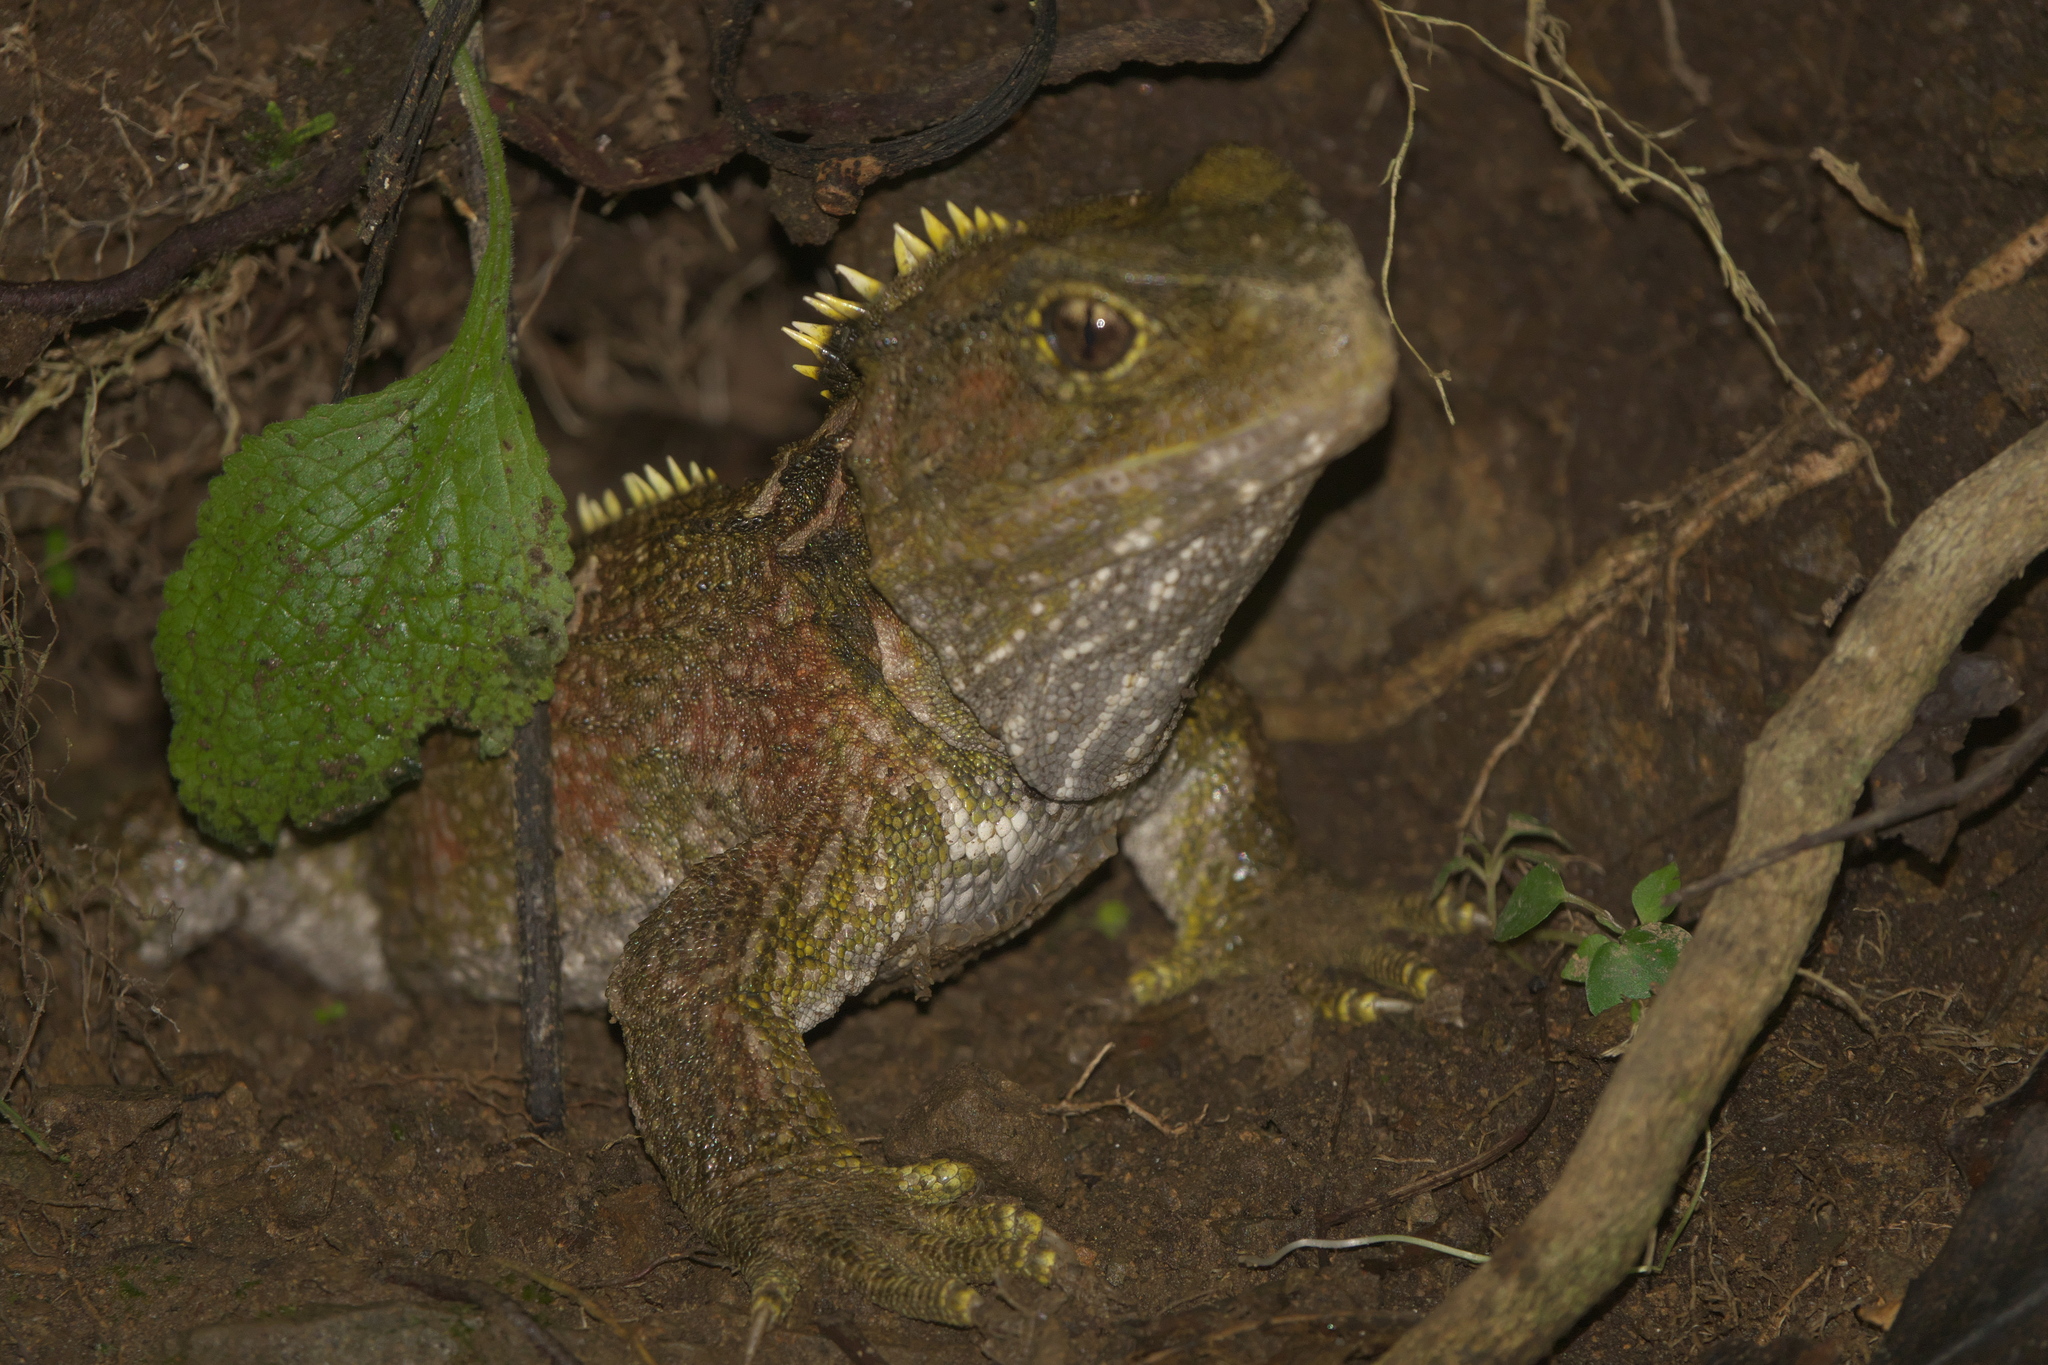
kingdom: Animalia
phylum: Chordata
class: Sphenodontia
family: Sphenodontidae
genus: Sphenodon
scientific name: Sphenodon punctatus
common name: Tuatara
